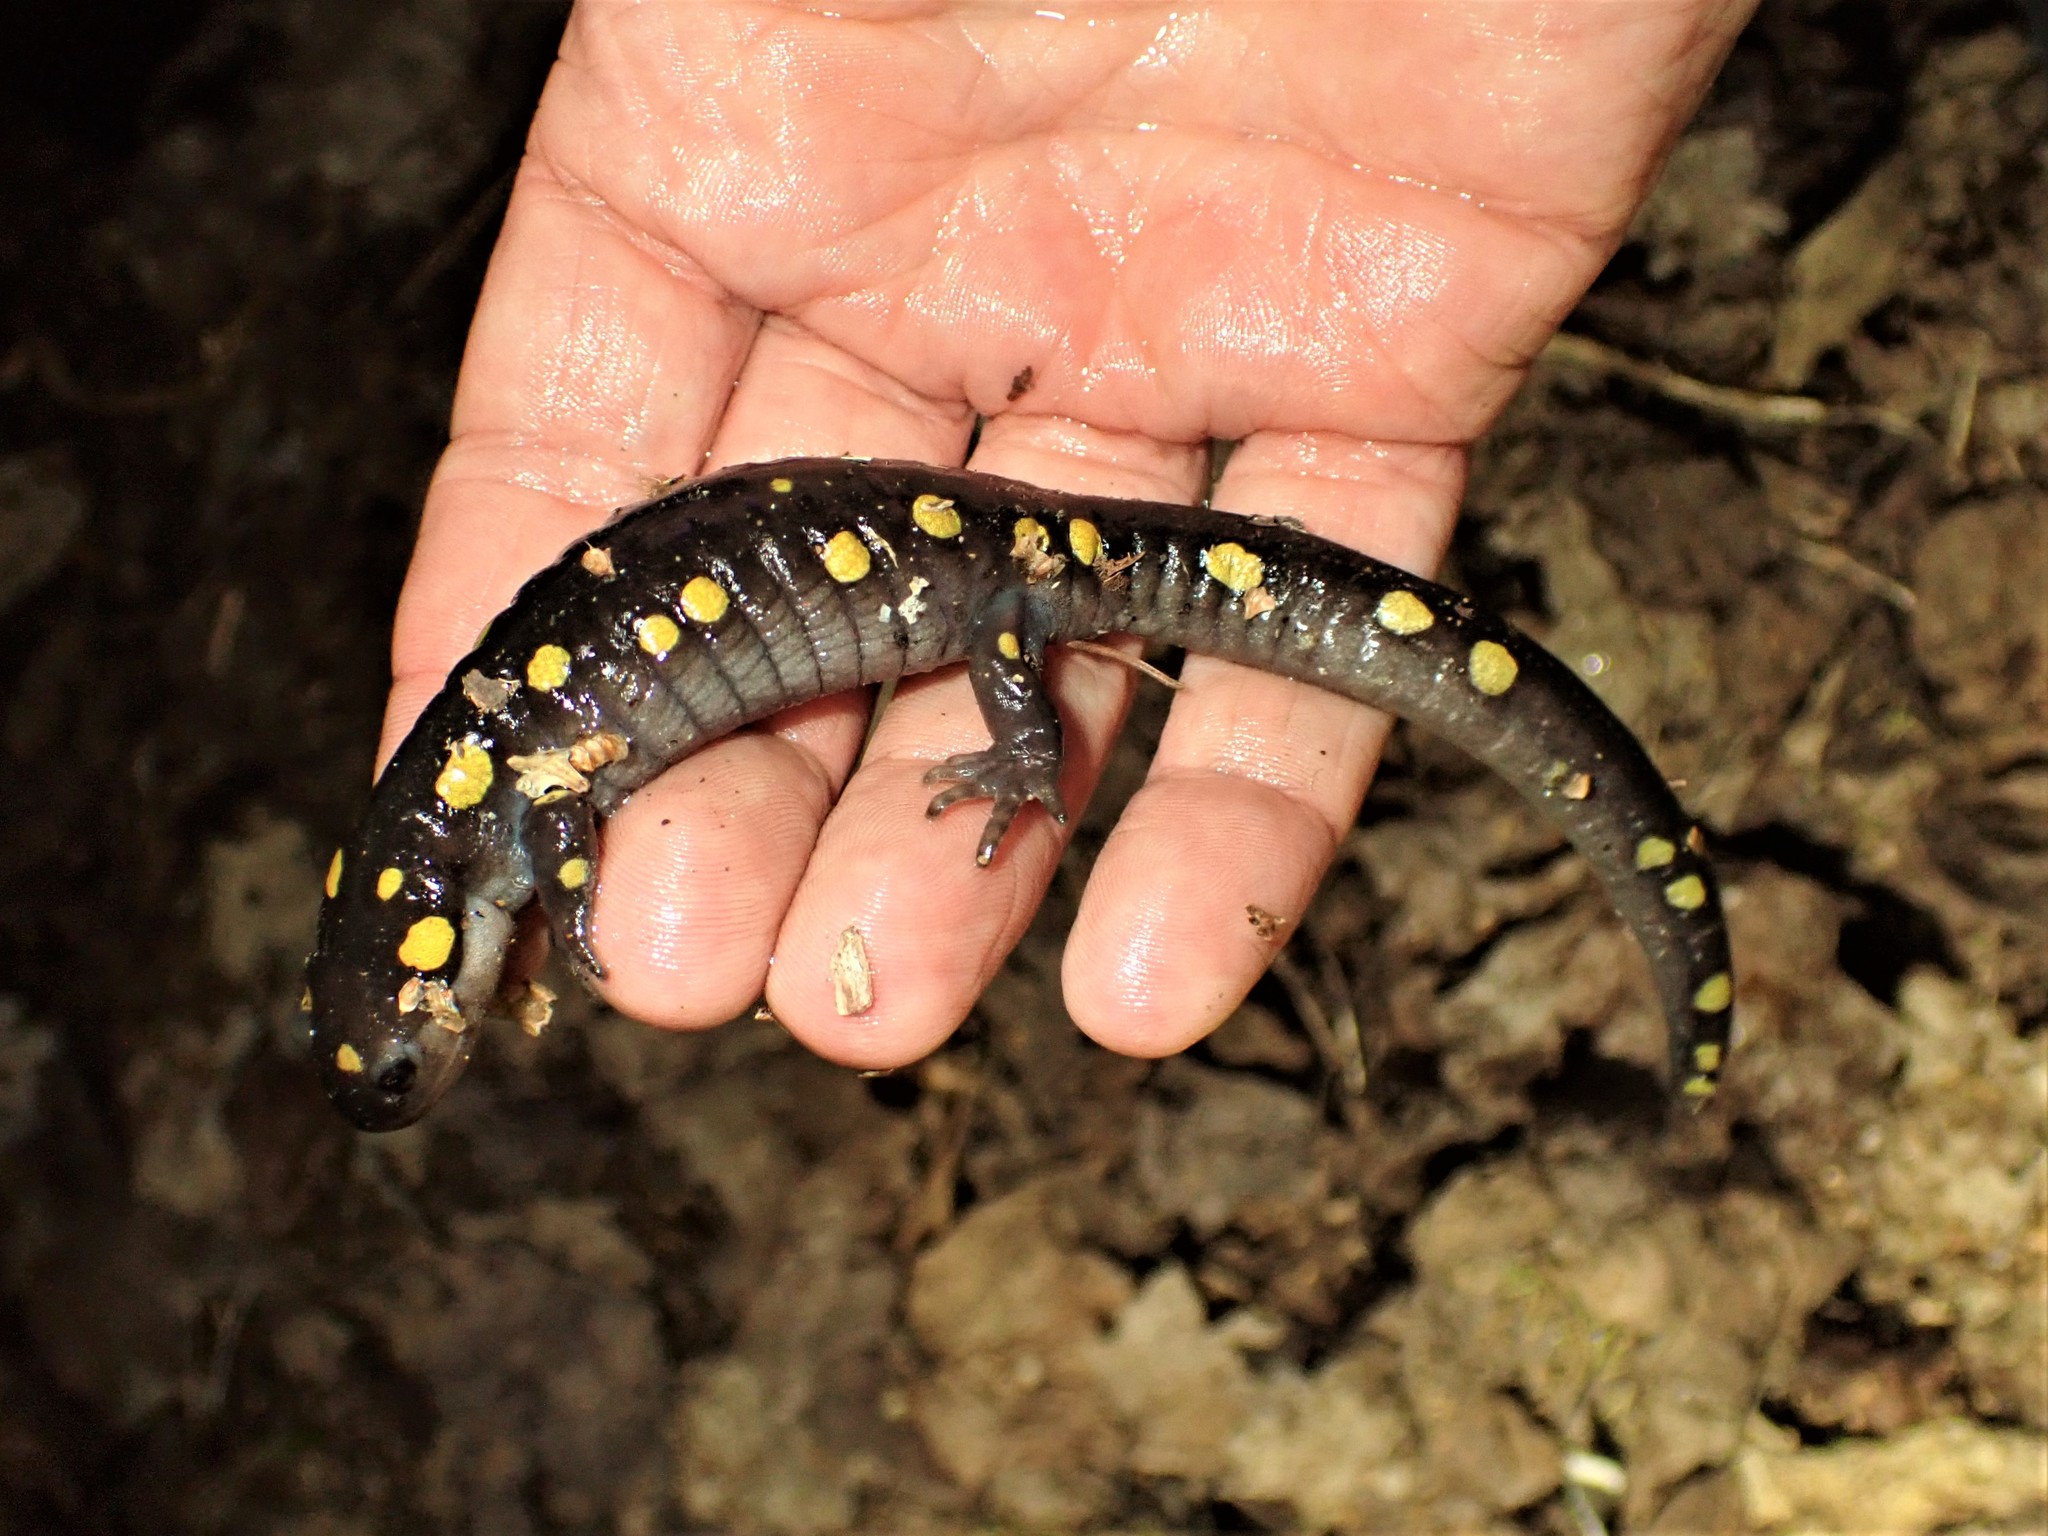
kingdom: Animalia
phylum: Chordata
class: Amphibia
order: Caudata
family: Ambystomatidae
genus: Ambystoma
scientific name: Ambystoma maculatum
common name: Spotted salamander
